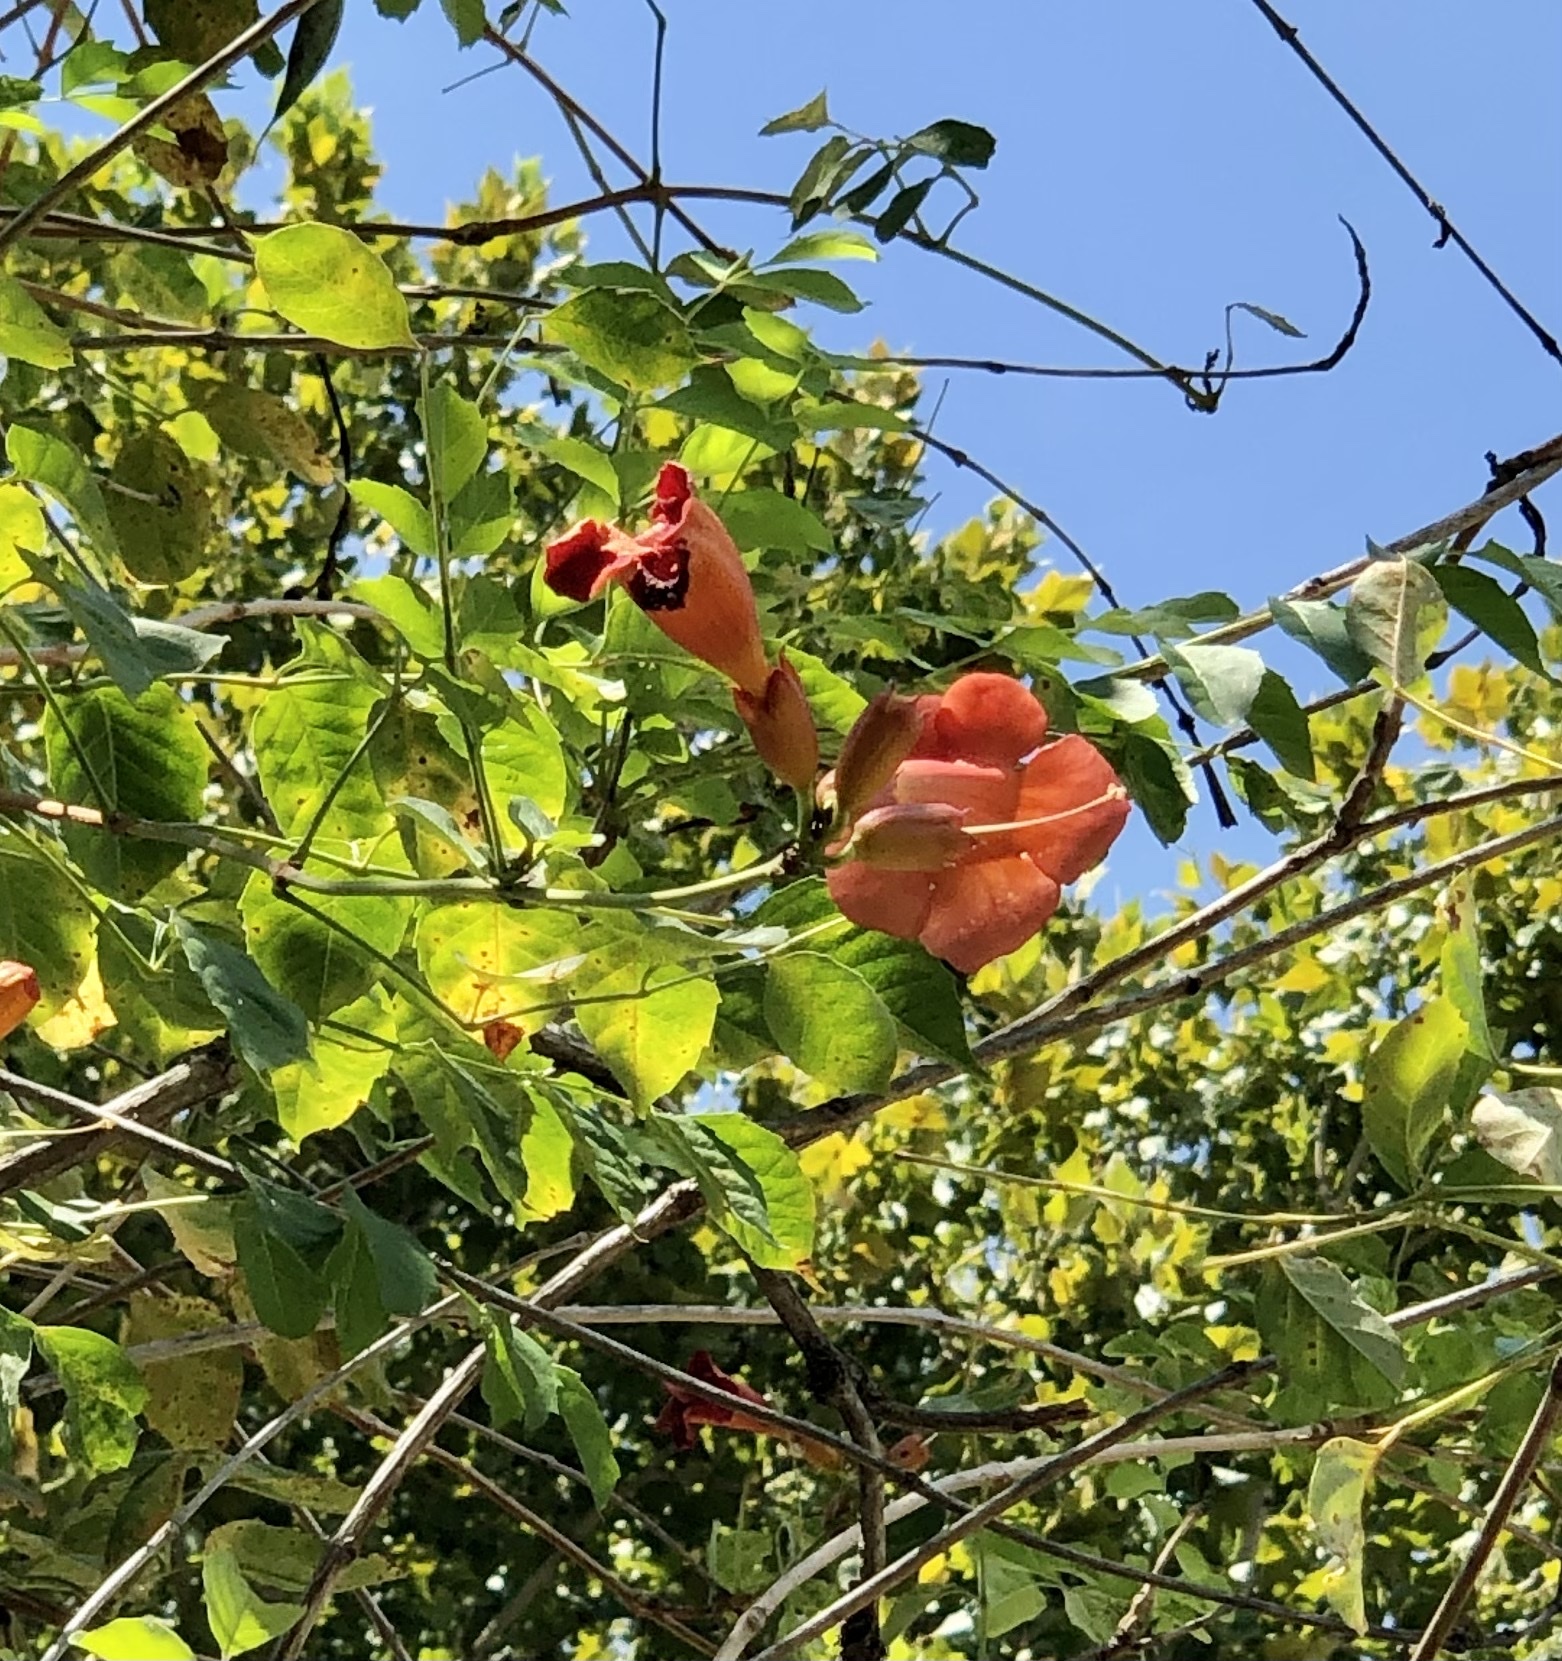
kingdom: Plantae
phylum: Tracheophyta
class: Magnoliopsida
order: Lamiales
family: Bignoniaceae
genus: Campsis
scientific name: Campsis radicans
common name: Trumpet-creeper
